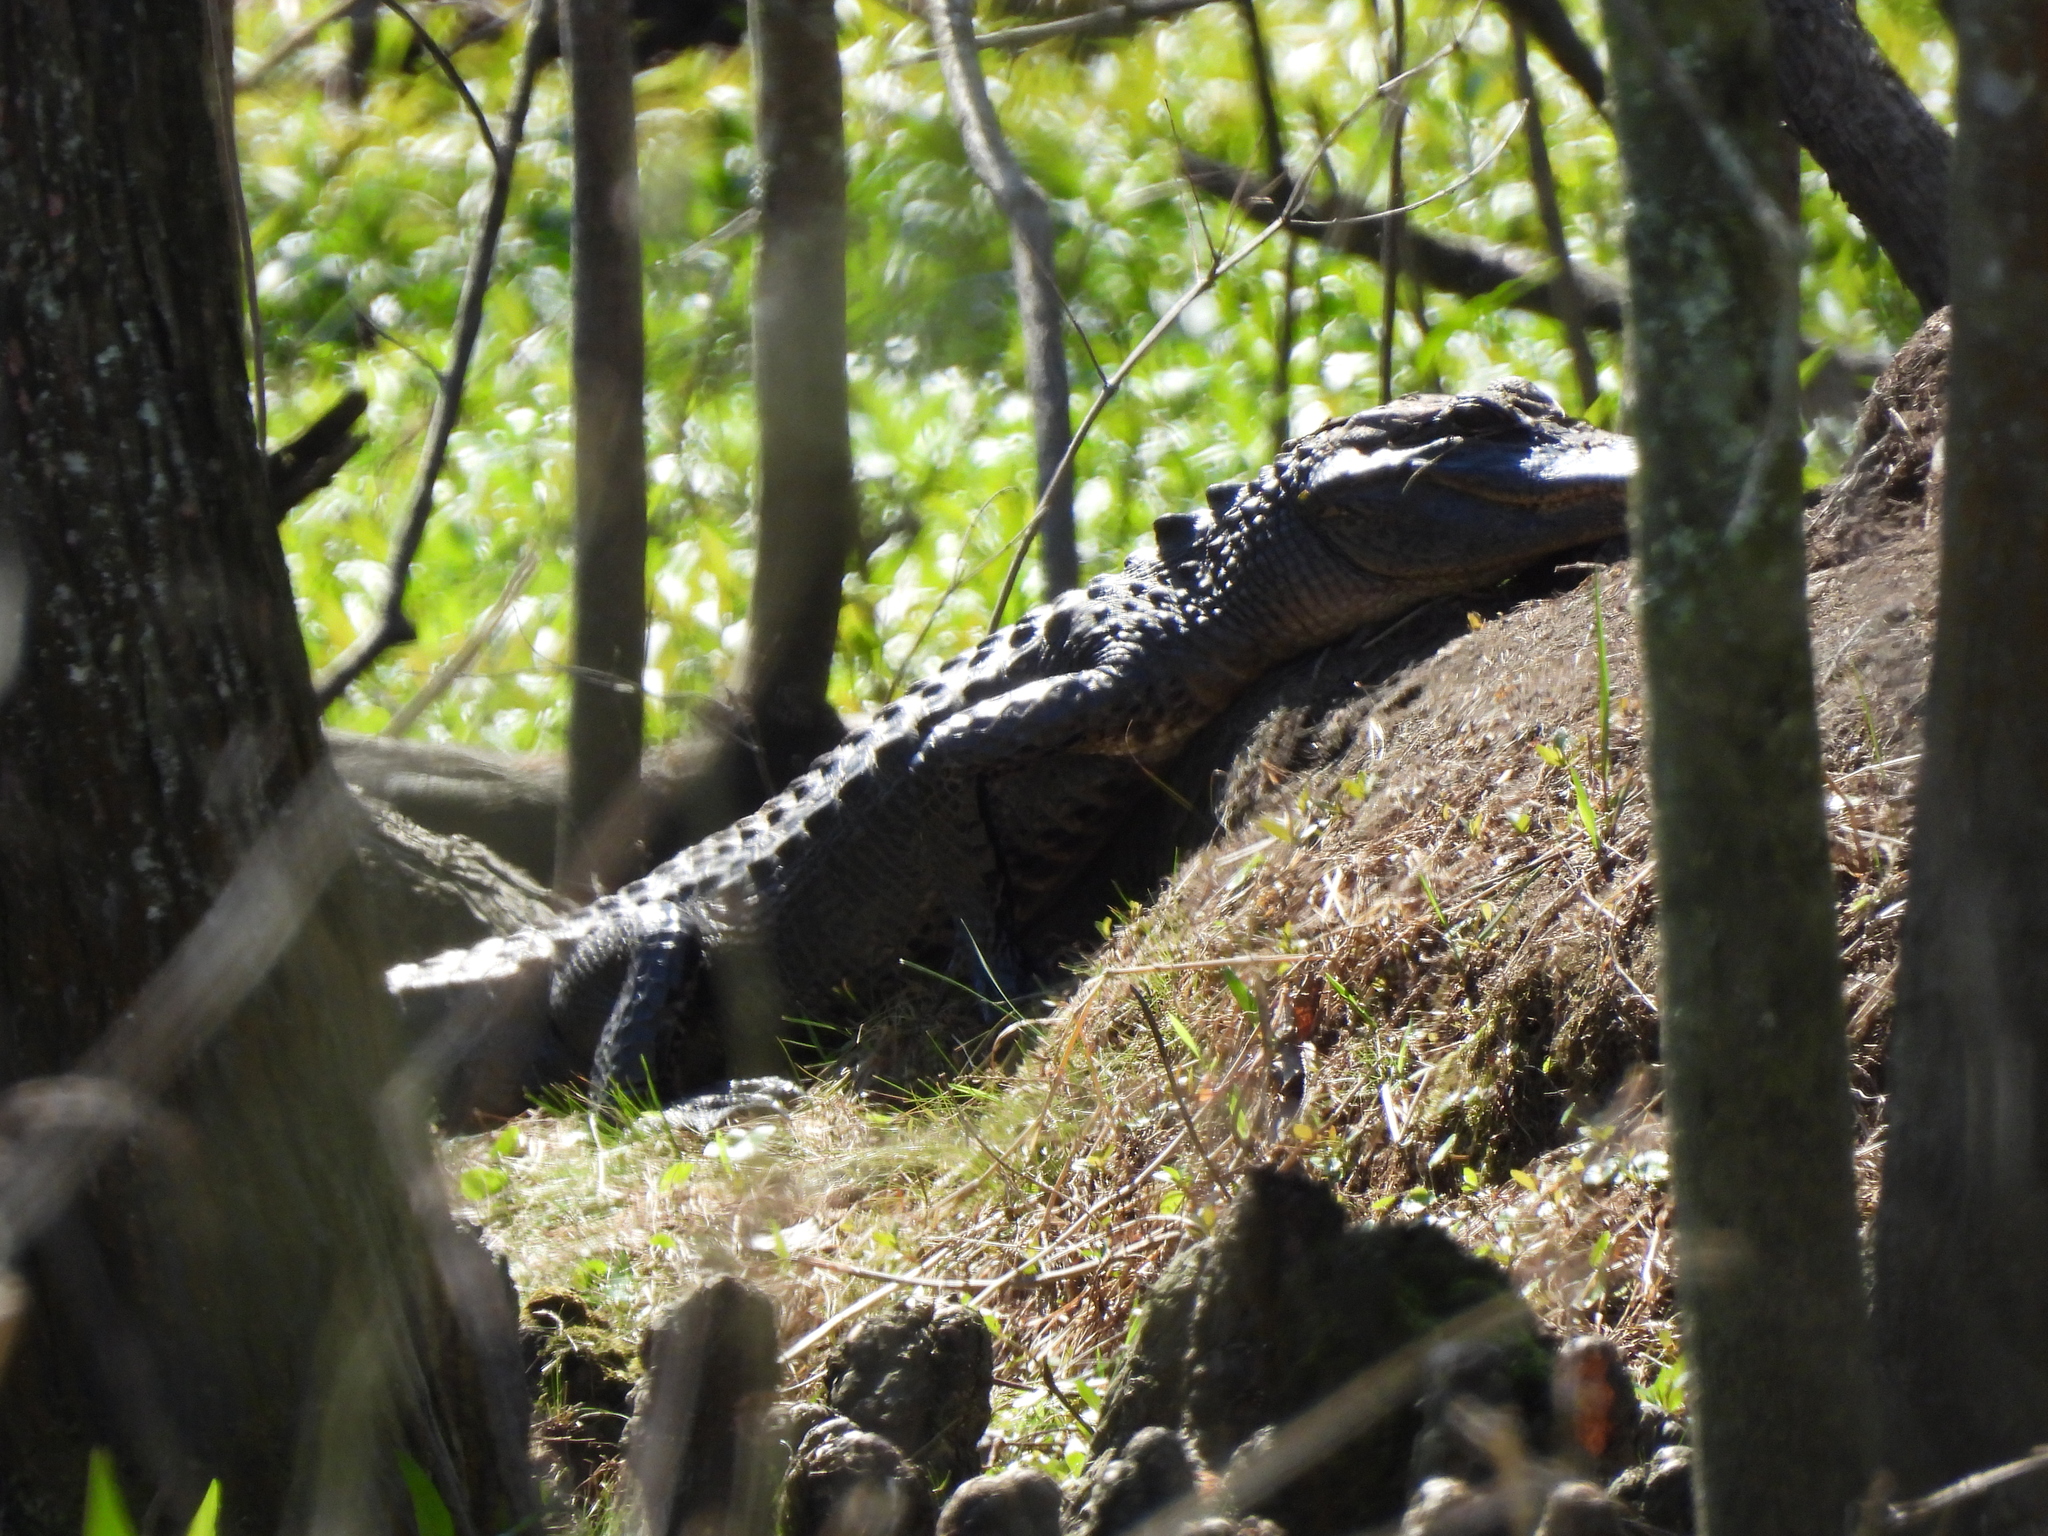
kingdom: Animalia
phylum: Chordata
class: Crocodylia
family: Alligatoridae
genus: Alligator
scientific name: Alligator mississippiensis
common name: American alligator
